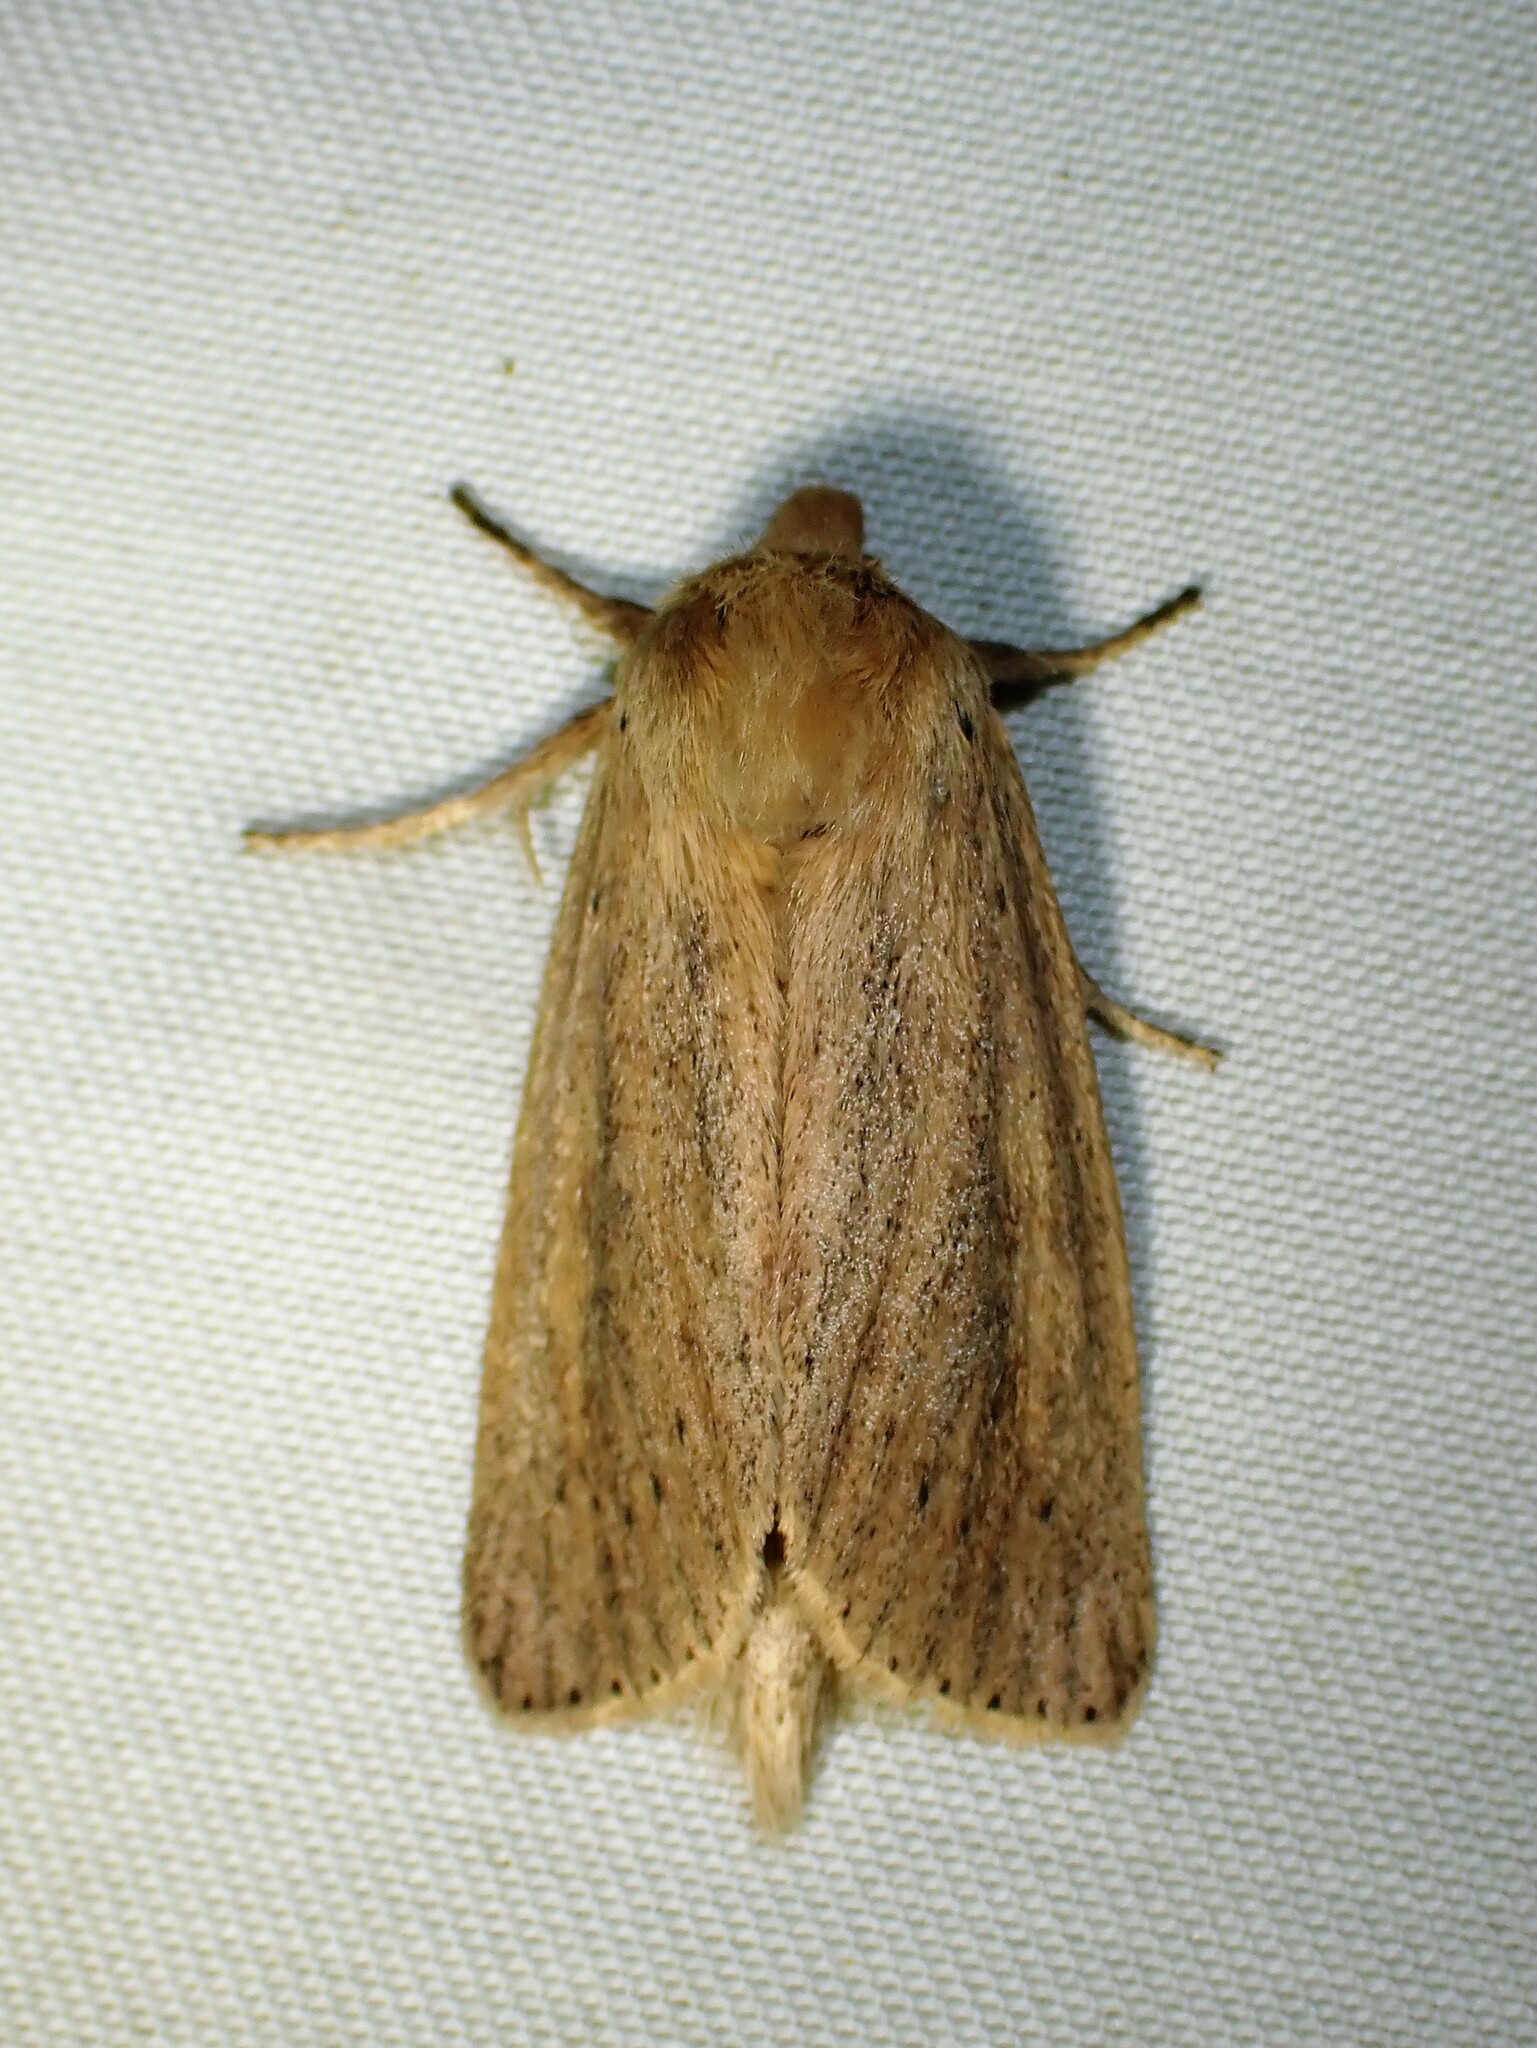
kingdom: Animalia
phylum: Arthropoda
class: Insecta
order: Lepidoptera
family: Noctuidae
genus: Globia
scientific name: Globia oblonga
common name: Oblong sedge borer moth
